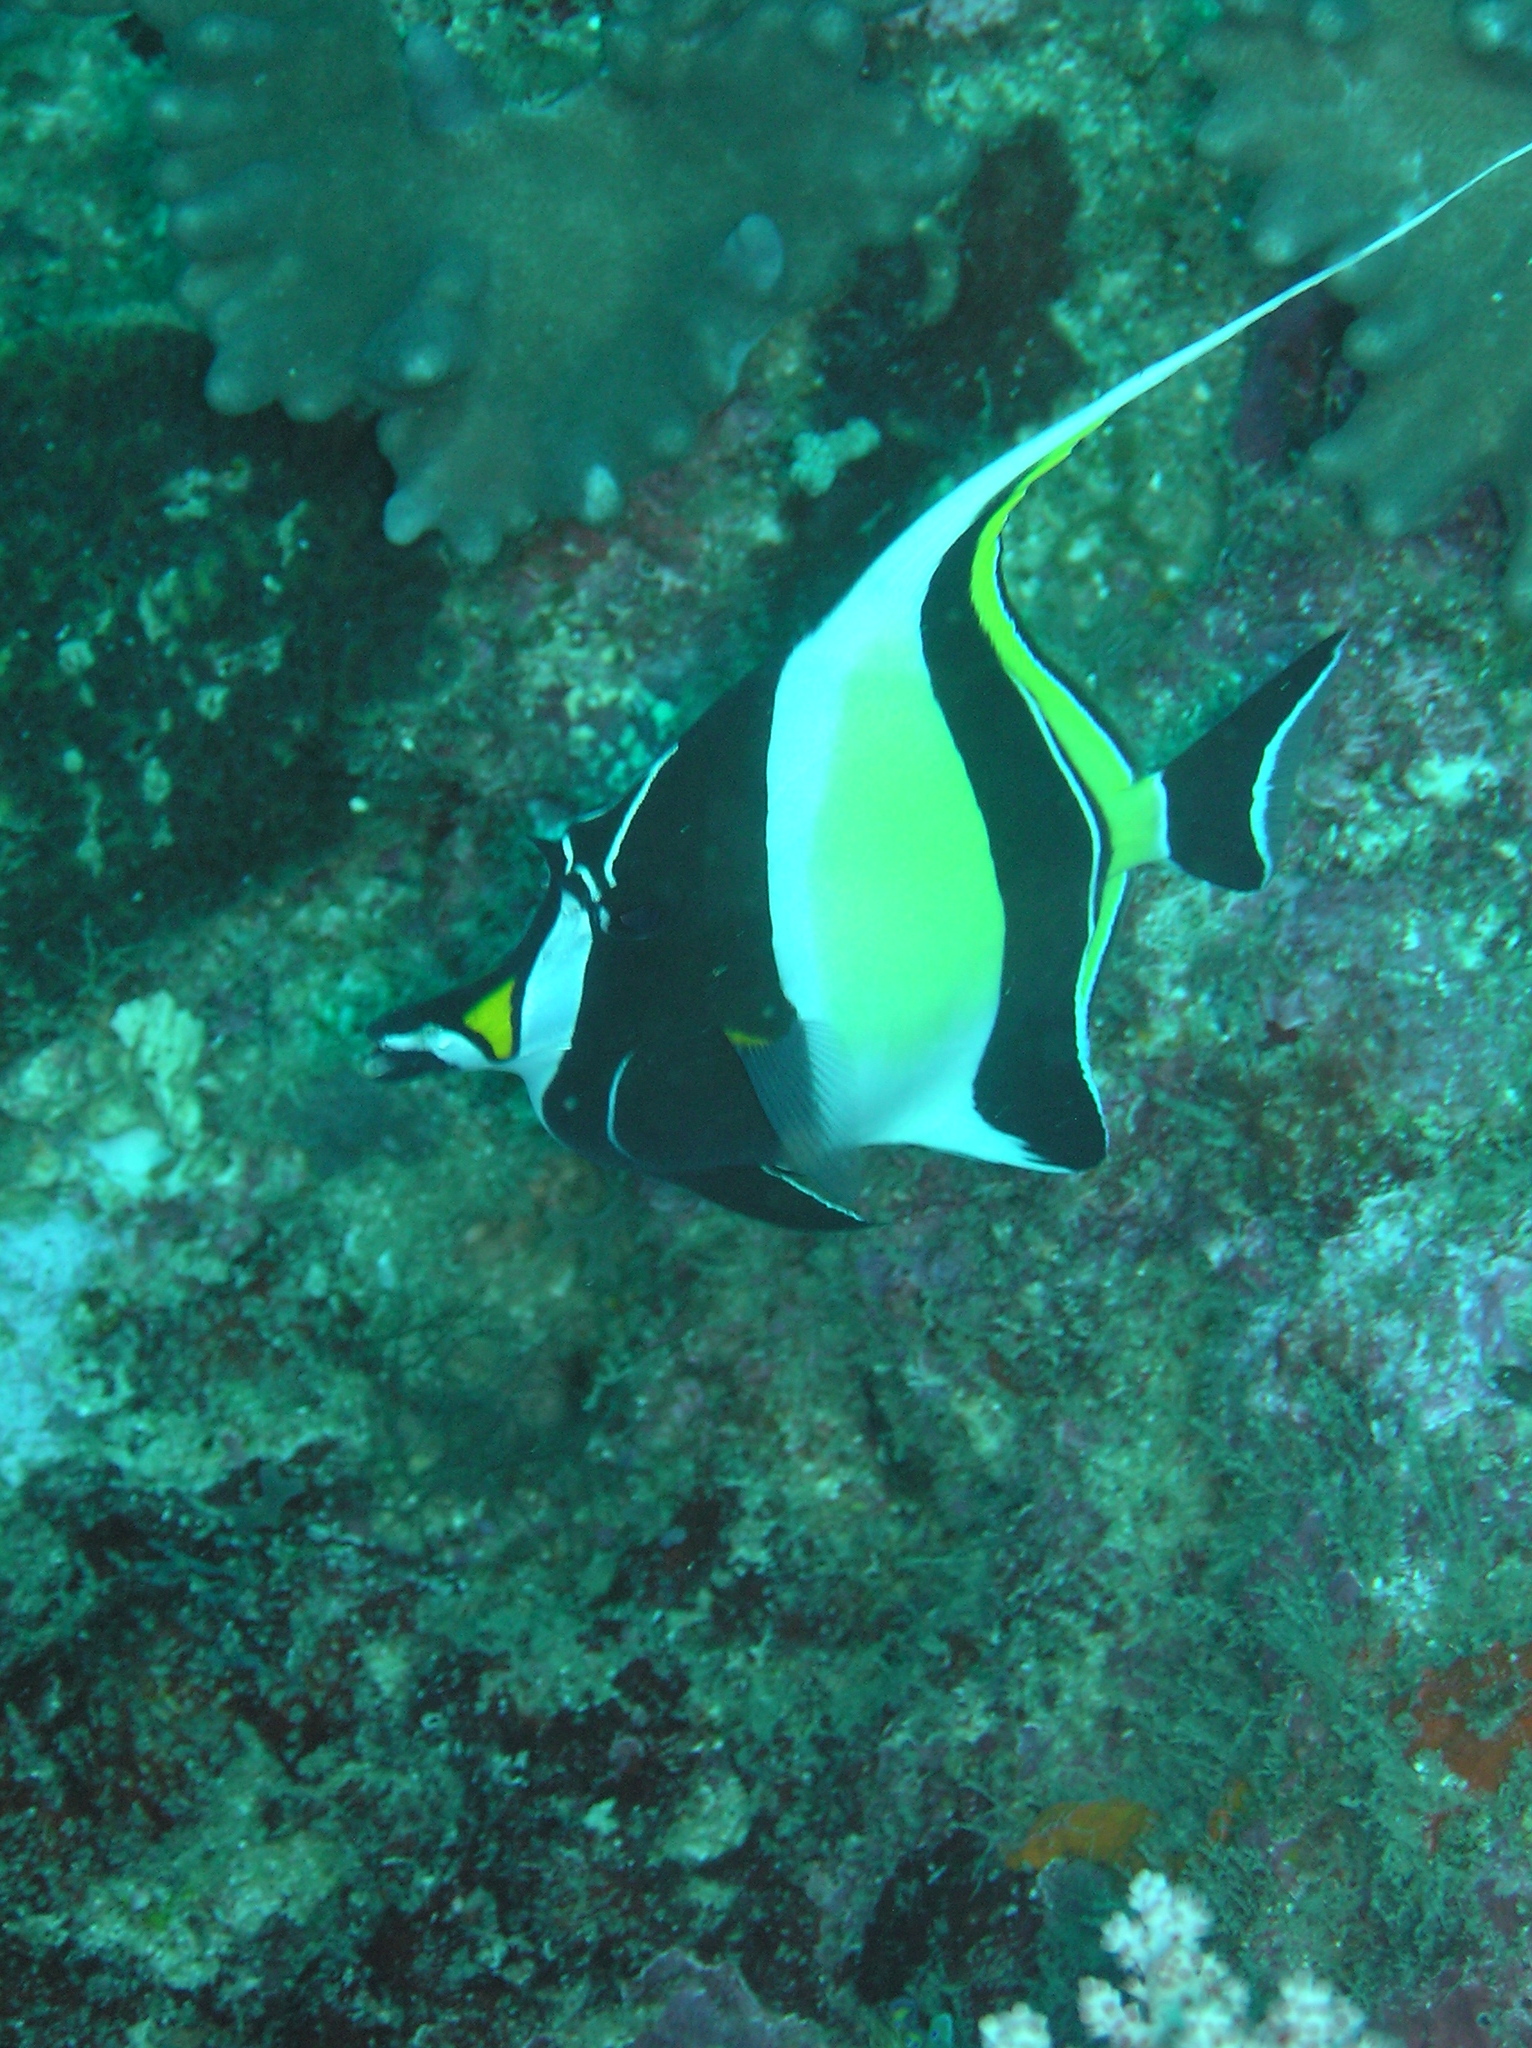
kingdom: Animalia
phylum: Chordata
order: Perciformes
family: Zanclidae
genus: Zanclus
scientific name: Zanclus cornutus
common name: Moorish idol
